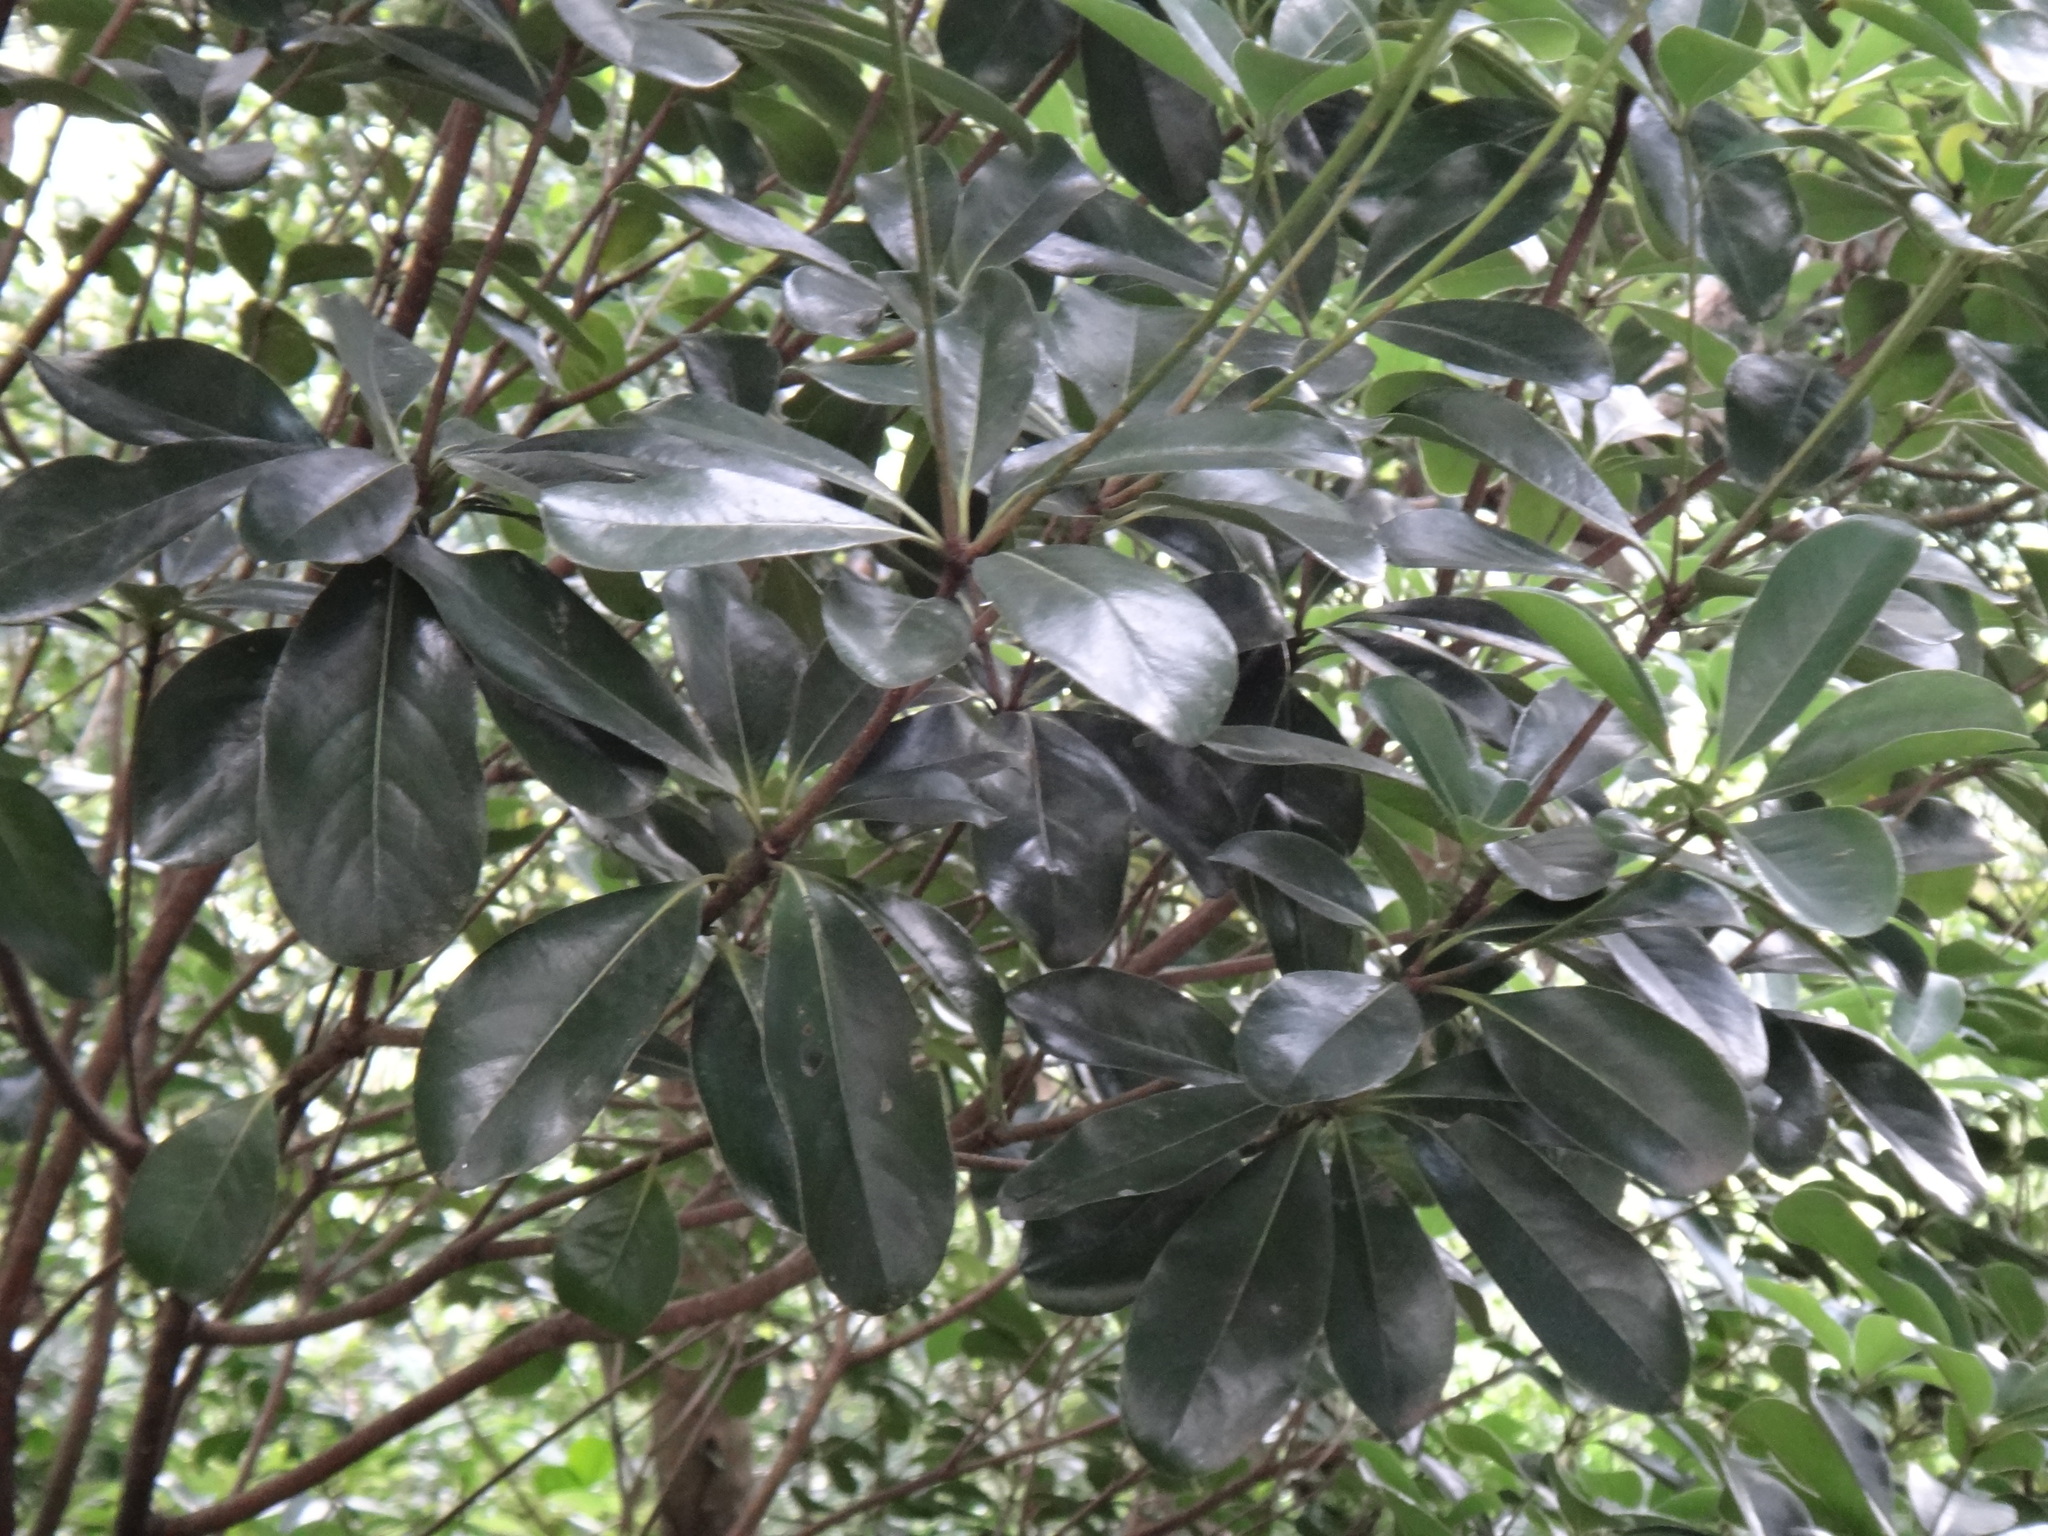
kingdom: Plantae
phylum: Tracheophyta
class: Magnoliopsida
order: Apiales
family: Pittosporaceae
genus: Pittosporum
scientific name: Pittosporum tobira
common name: Japanese cheesewood
